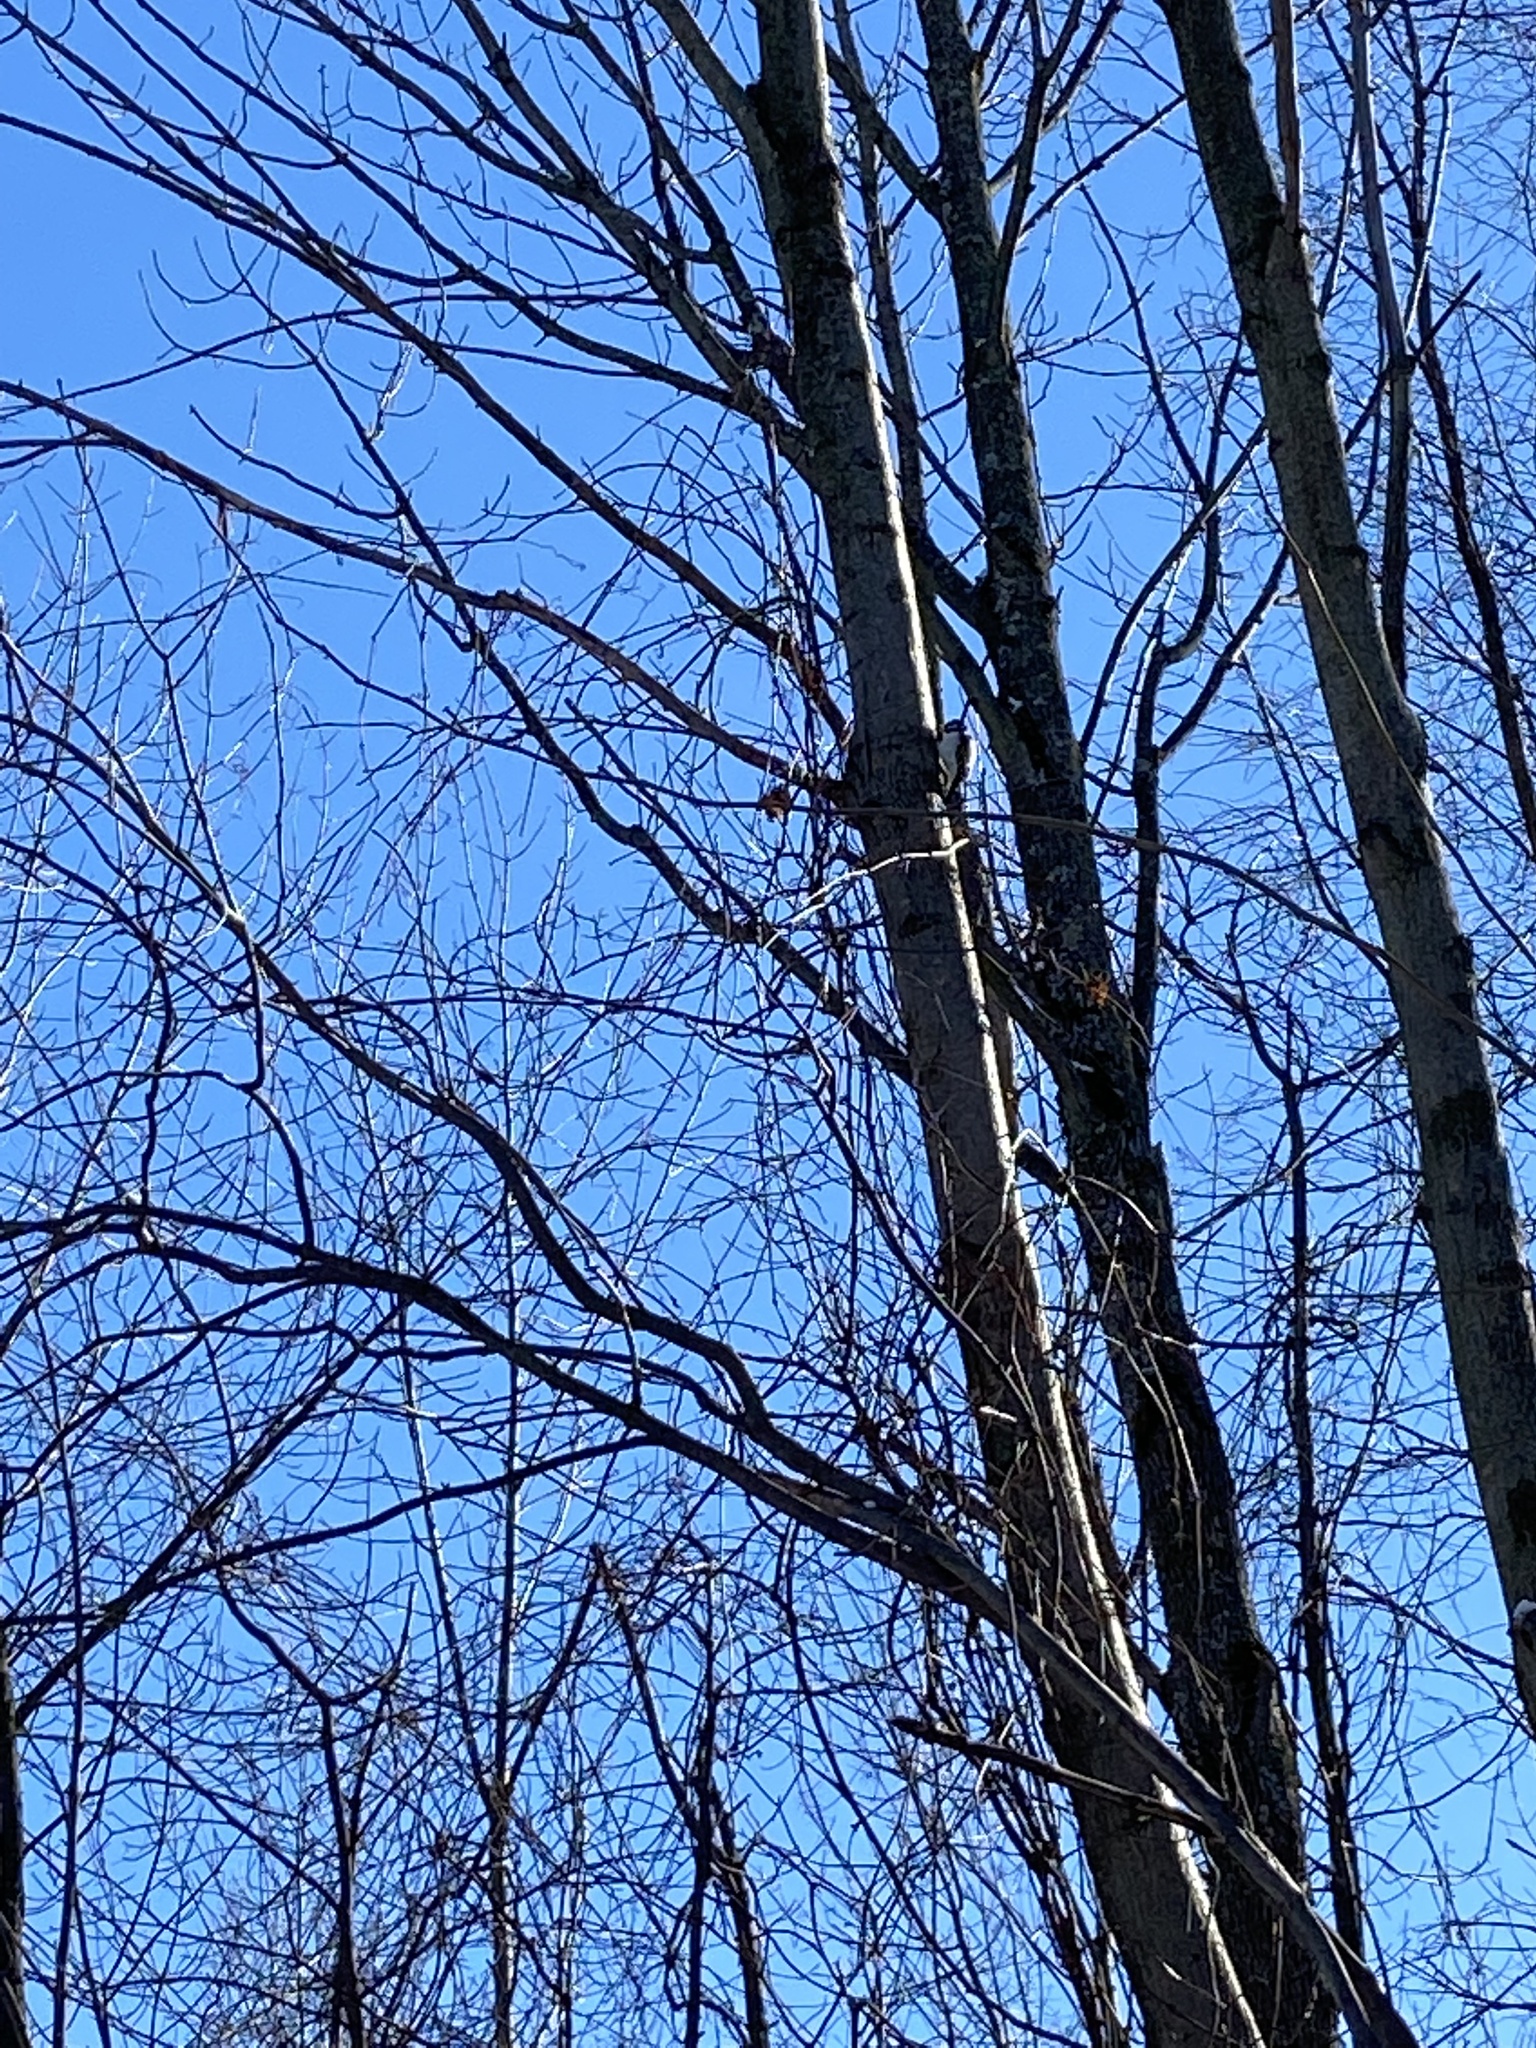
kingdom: Animalia
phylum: Chordata
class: Aves
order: Piciformes
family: Picidae
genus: Dryobates
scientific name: Dryobates pubescens
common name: Downy woodpecker
